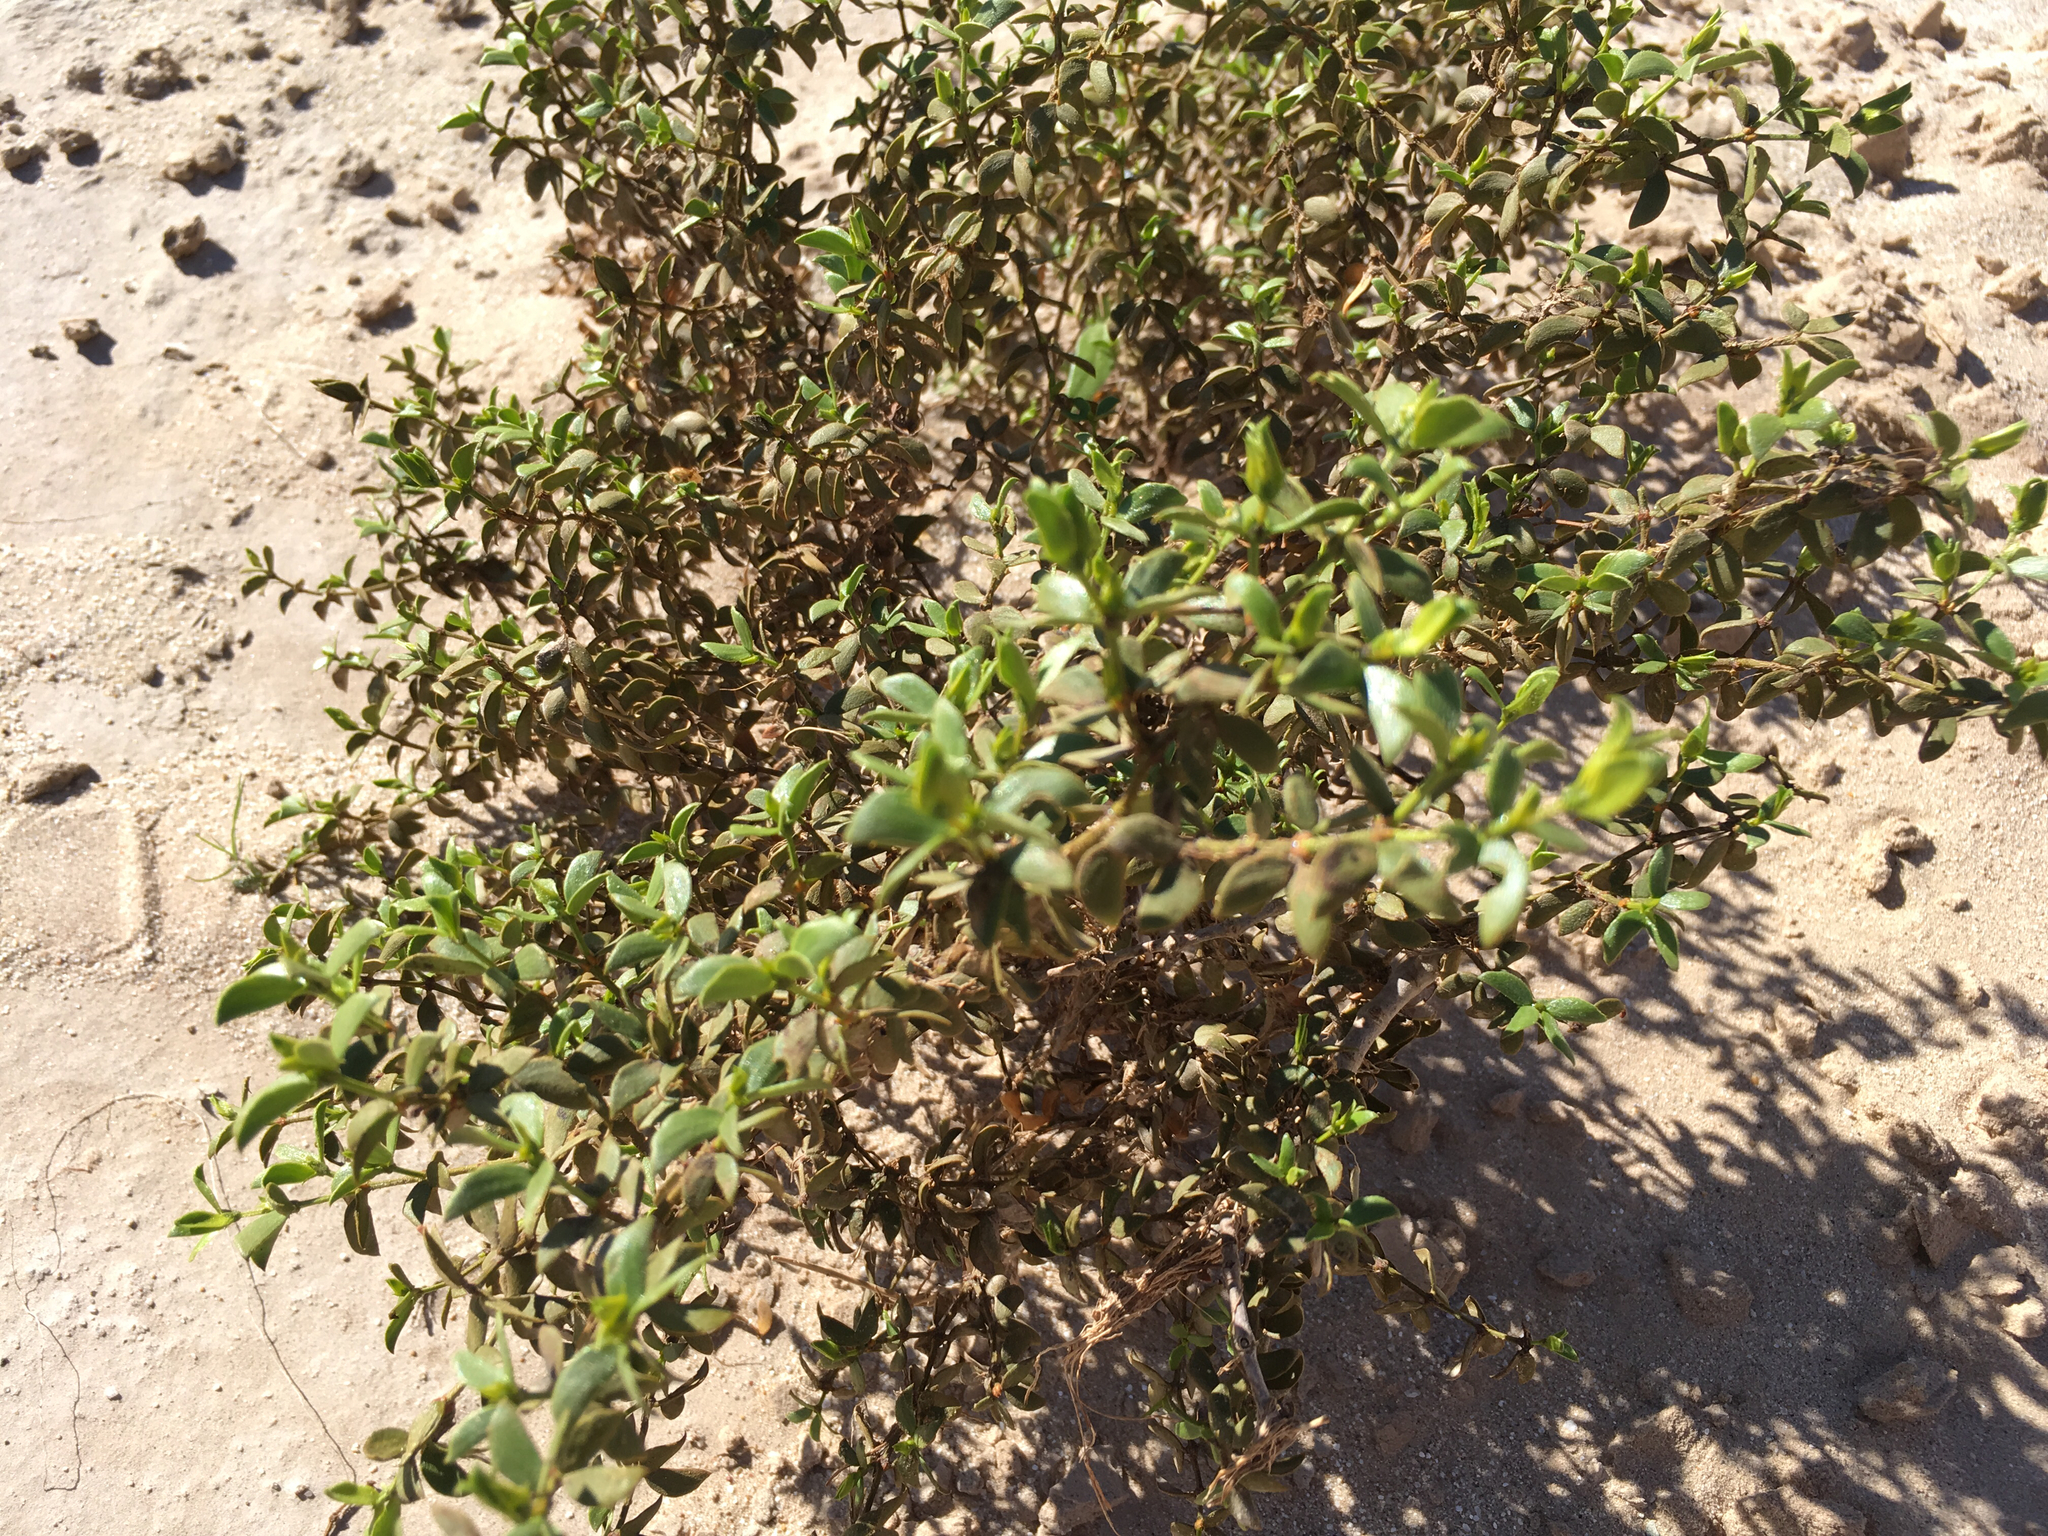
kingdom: Plantae
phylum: Tracheophyta
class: Magnoliopsida
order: Zygophyllales
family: Zygophyllaceae
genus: Larrea
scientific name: Larrea tridentata
